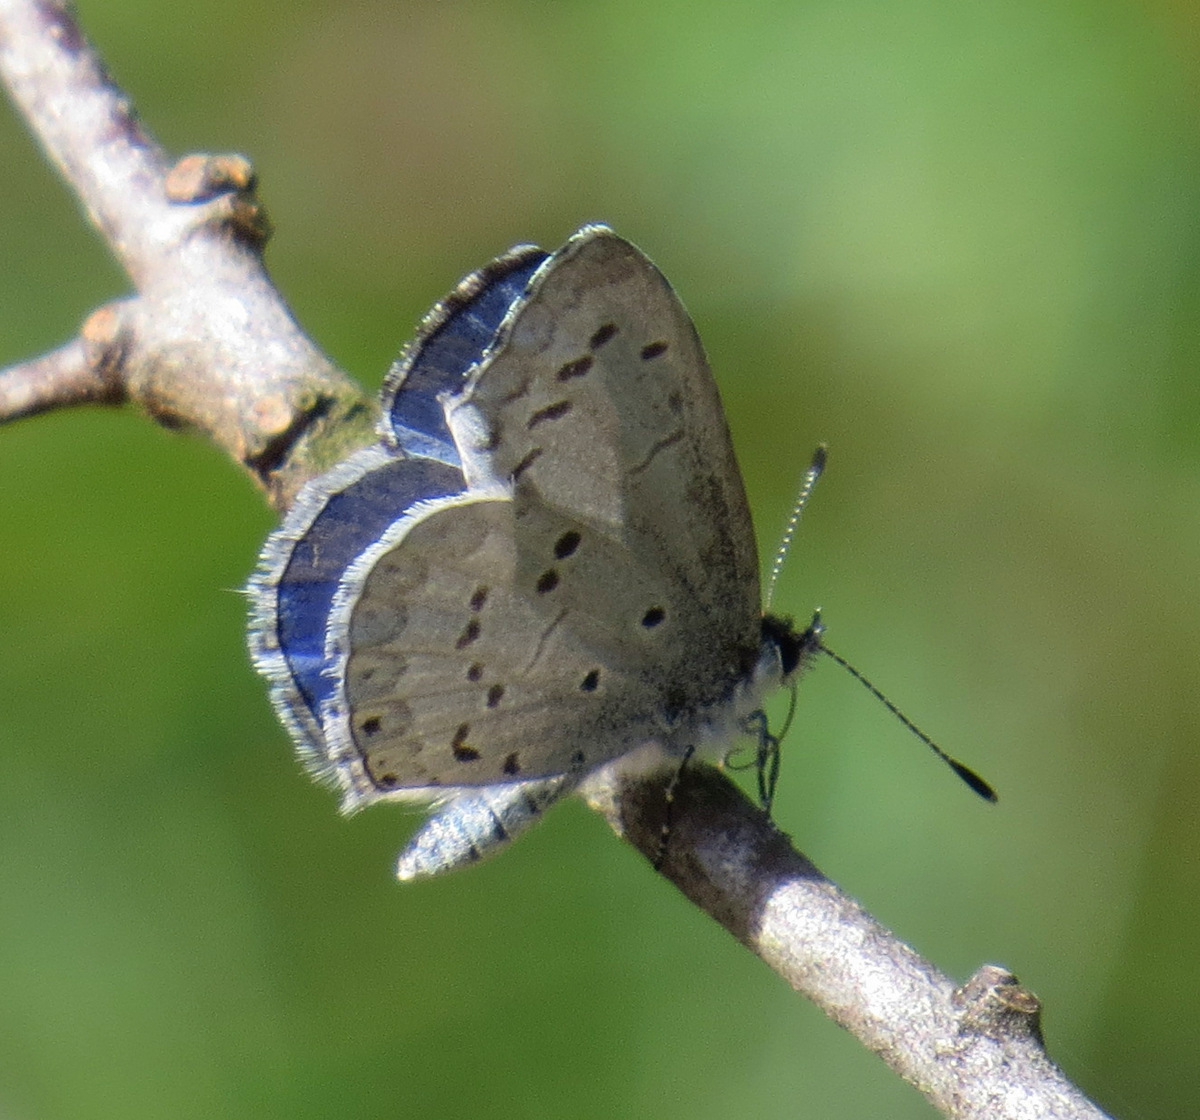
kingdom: Animalia
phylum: Arthropoda
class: Insecta
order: Lepidoptera
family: Lycaenidae
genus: Celastrina
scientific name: Celastrina ladon
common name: Spring azure
